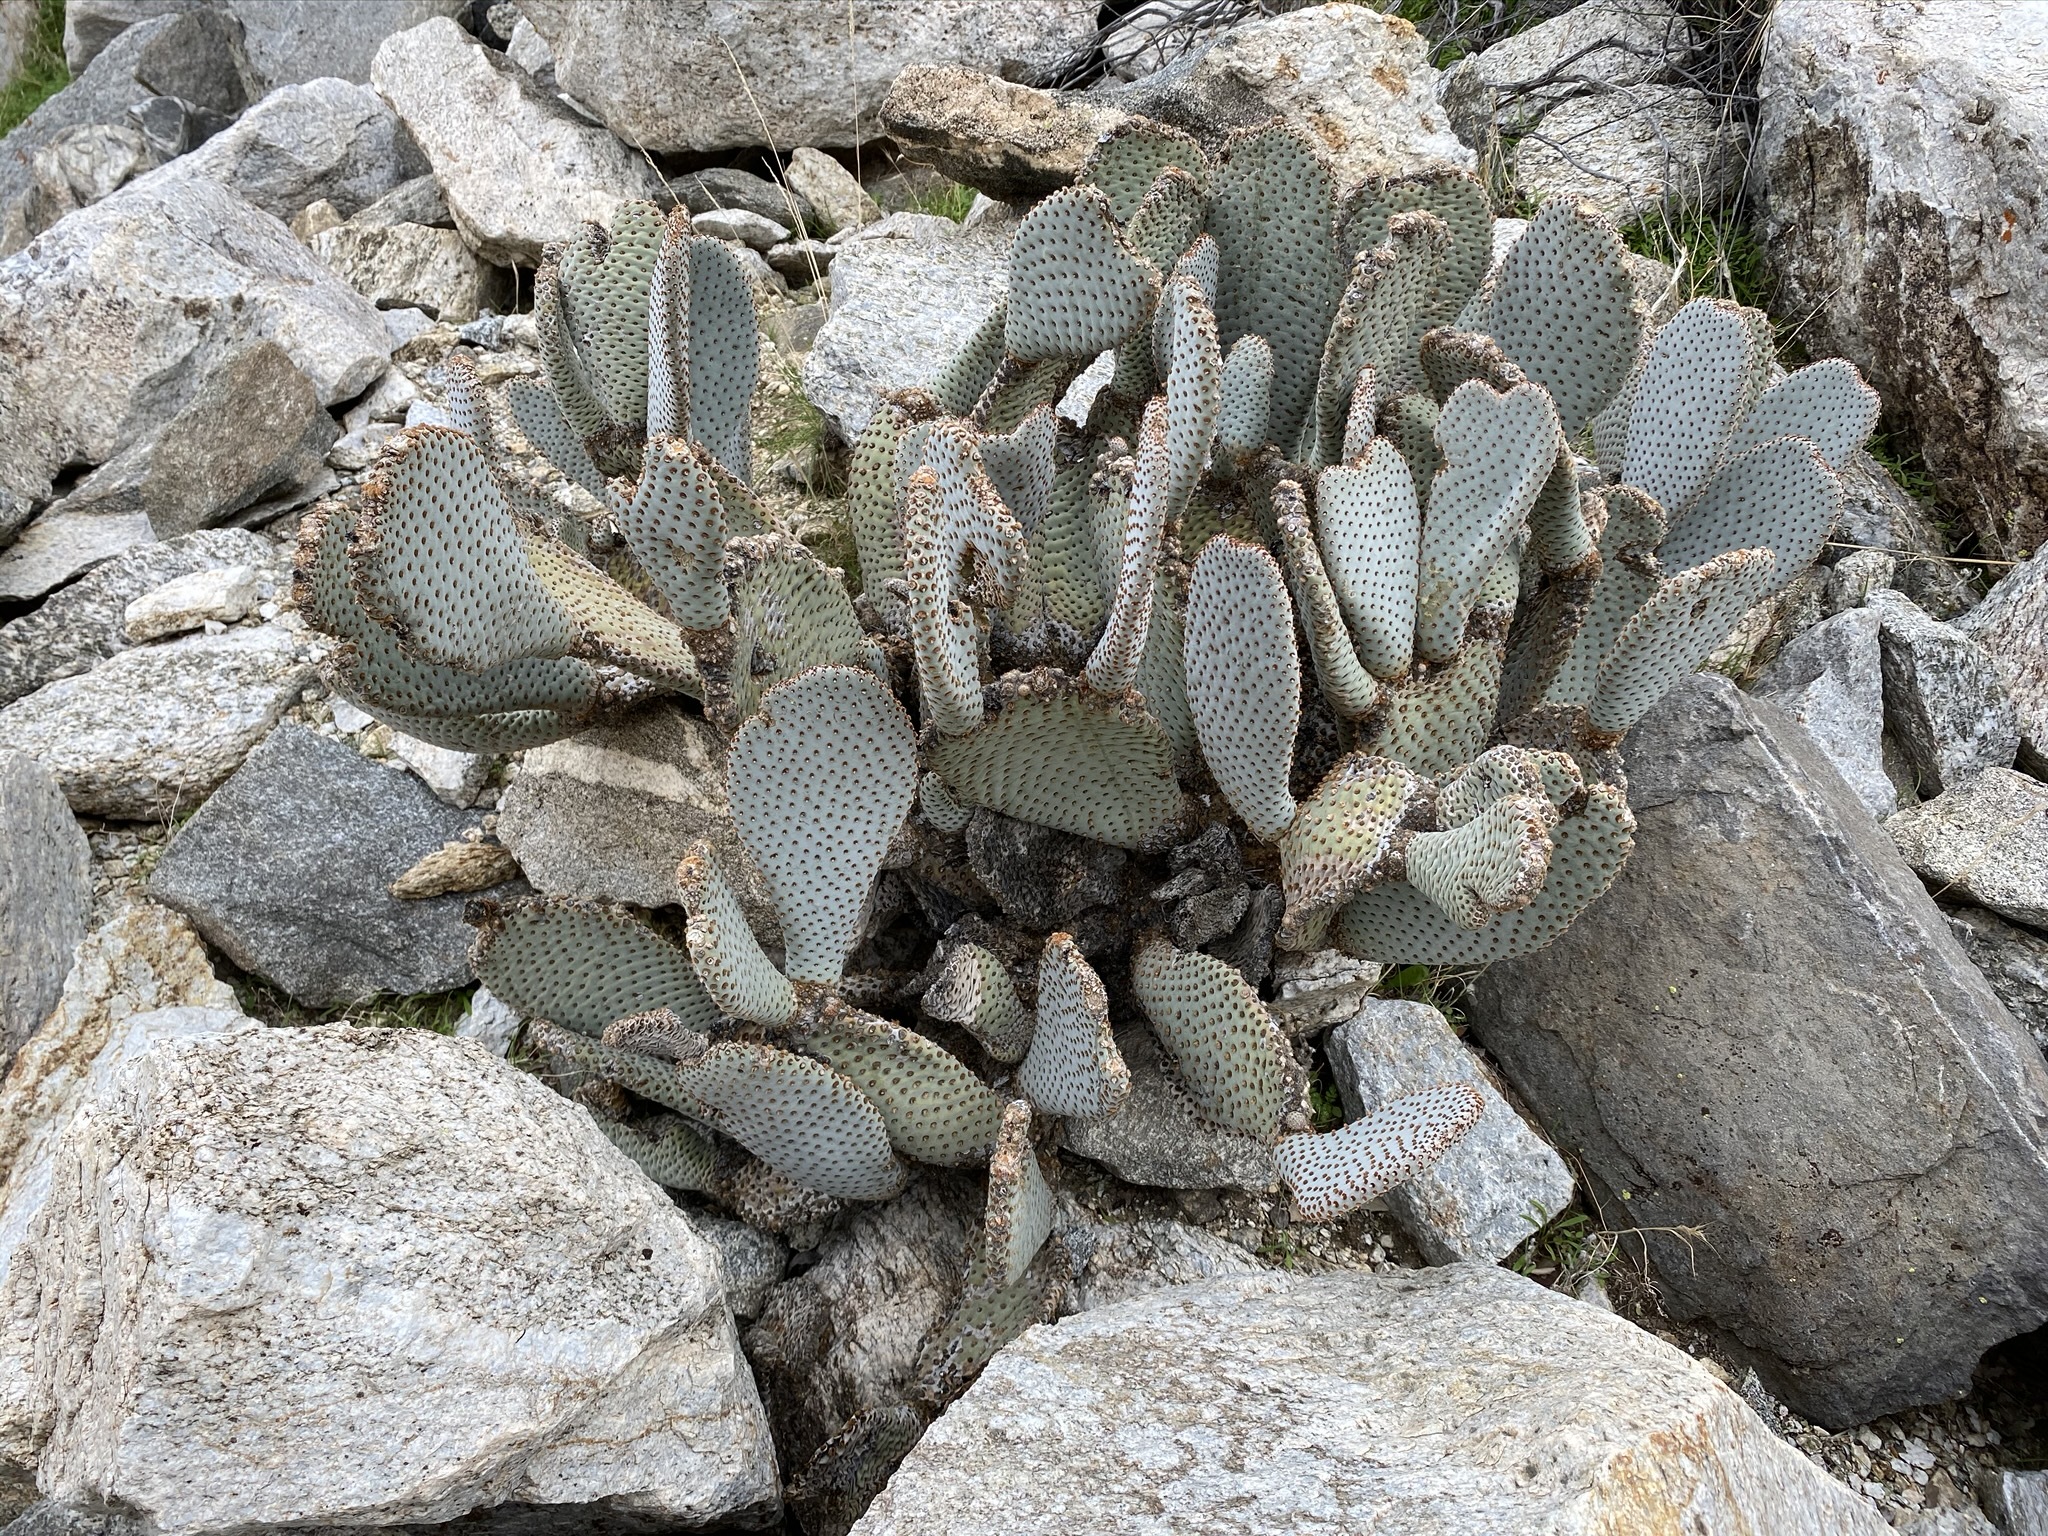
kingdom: Plantae
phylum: Tracheophyta
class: Magnoliopsida
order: Caryophyllales
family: Cactaceae
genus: Opuntia
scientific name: Opuntia basilaris
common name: Beavertail prickly-pear
